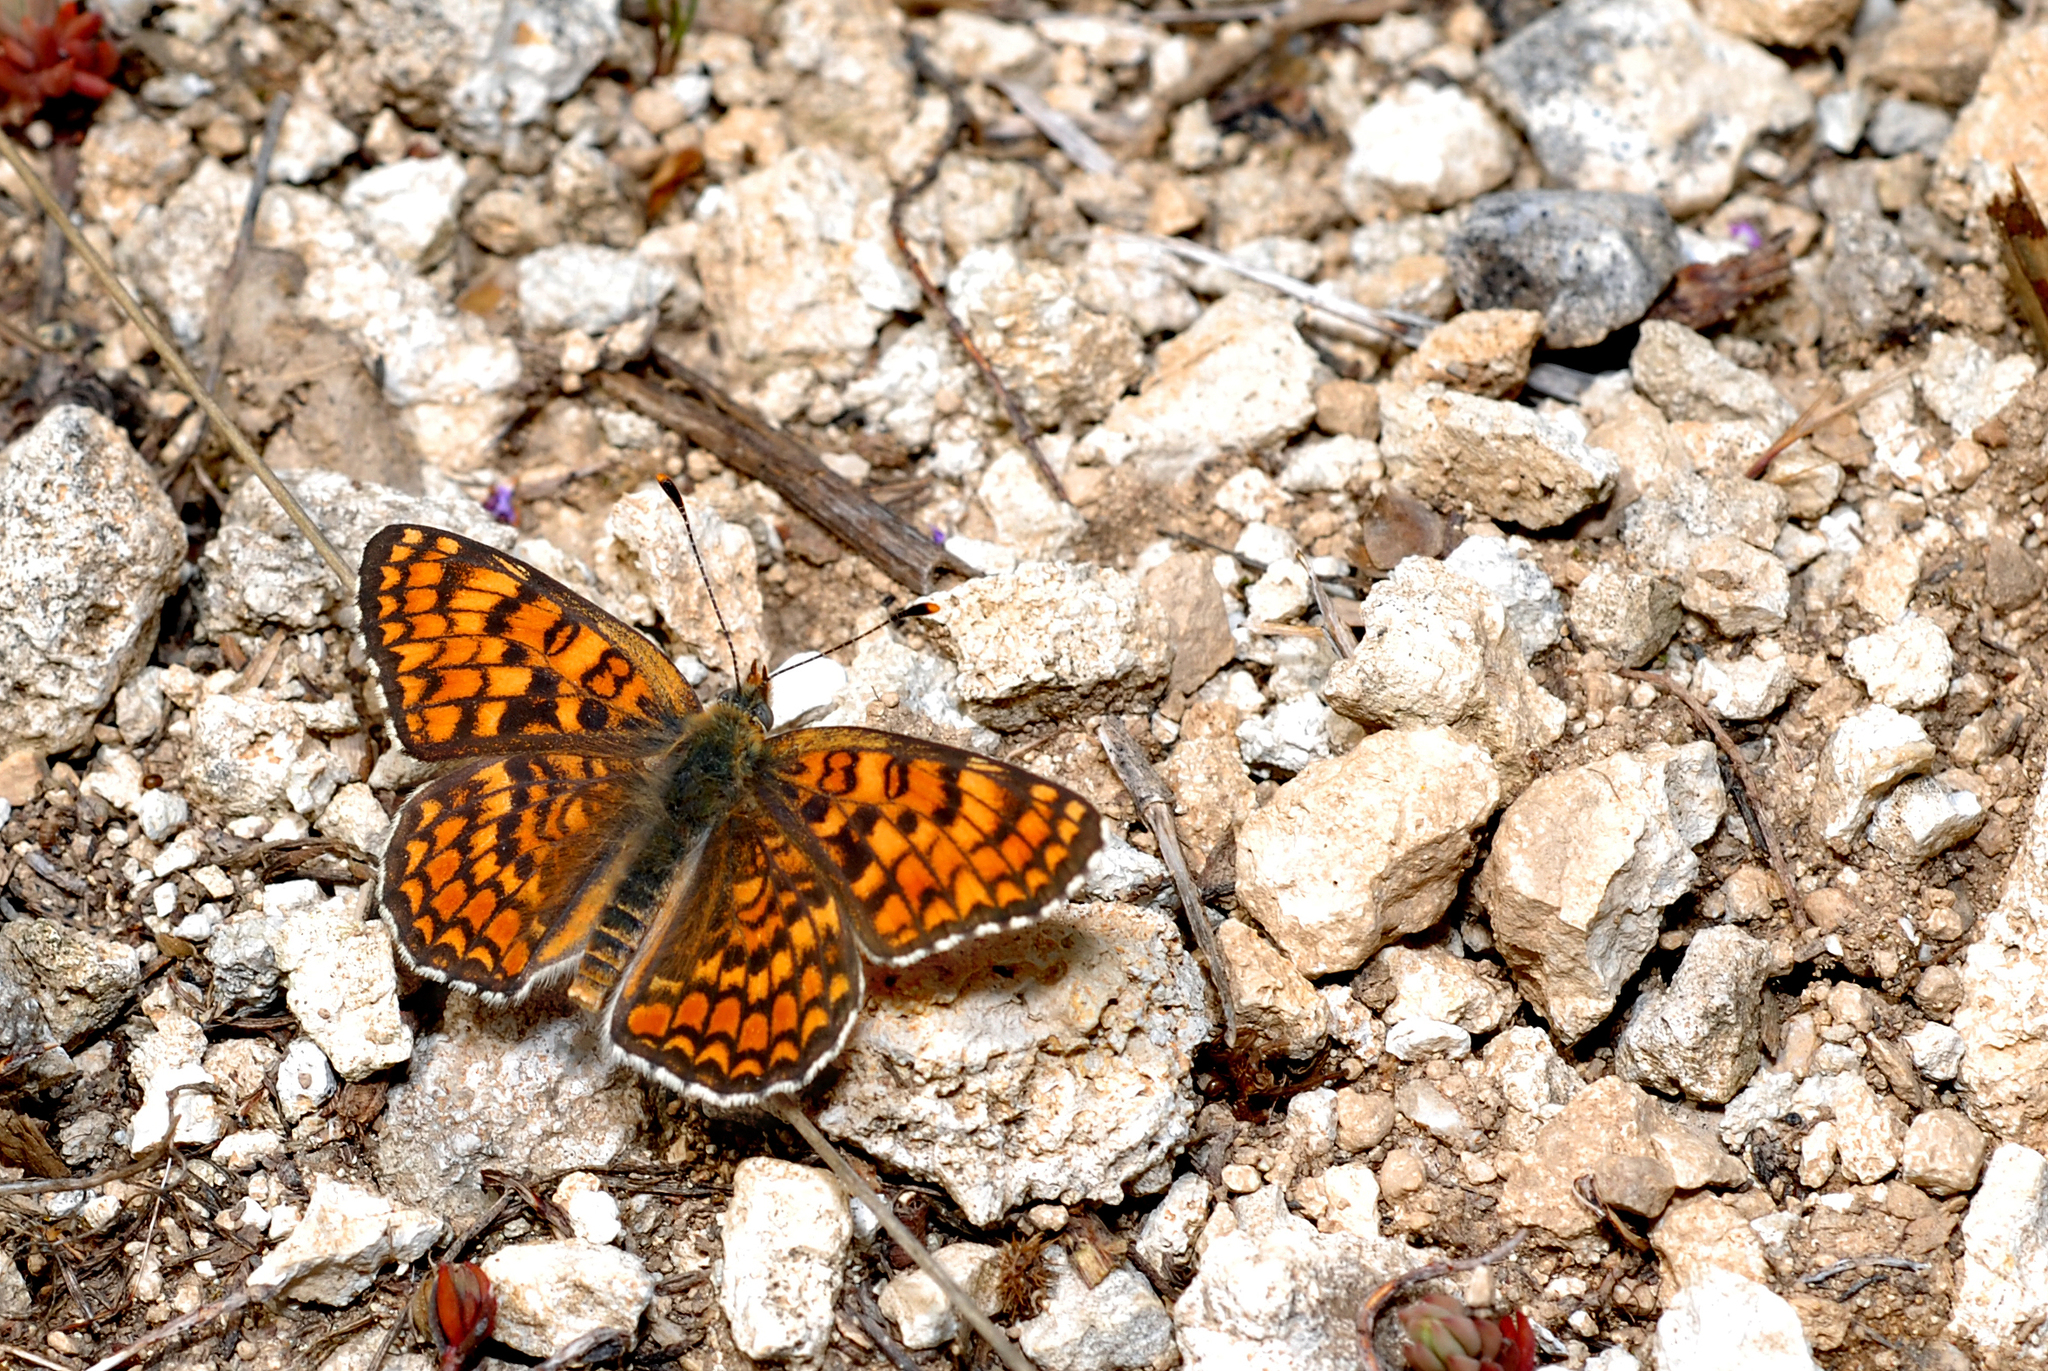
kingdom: Animalia
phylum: Arthropoda
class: Insecta
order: Lepidoptera
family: Nymphalidae
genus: Melitaea
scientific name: Melitaea phoebe
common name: Knapweed fritillary
